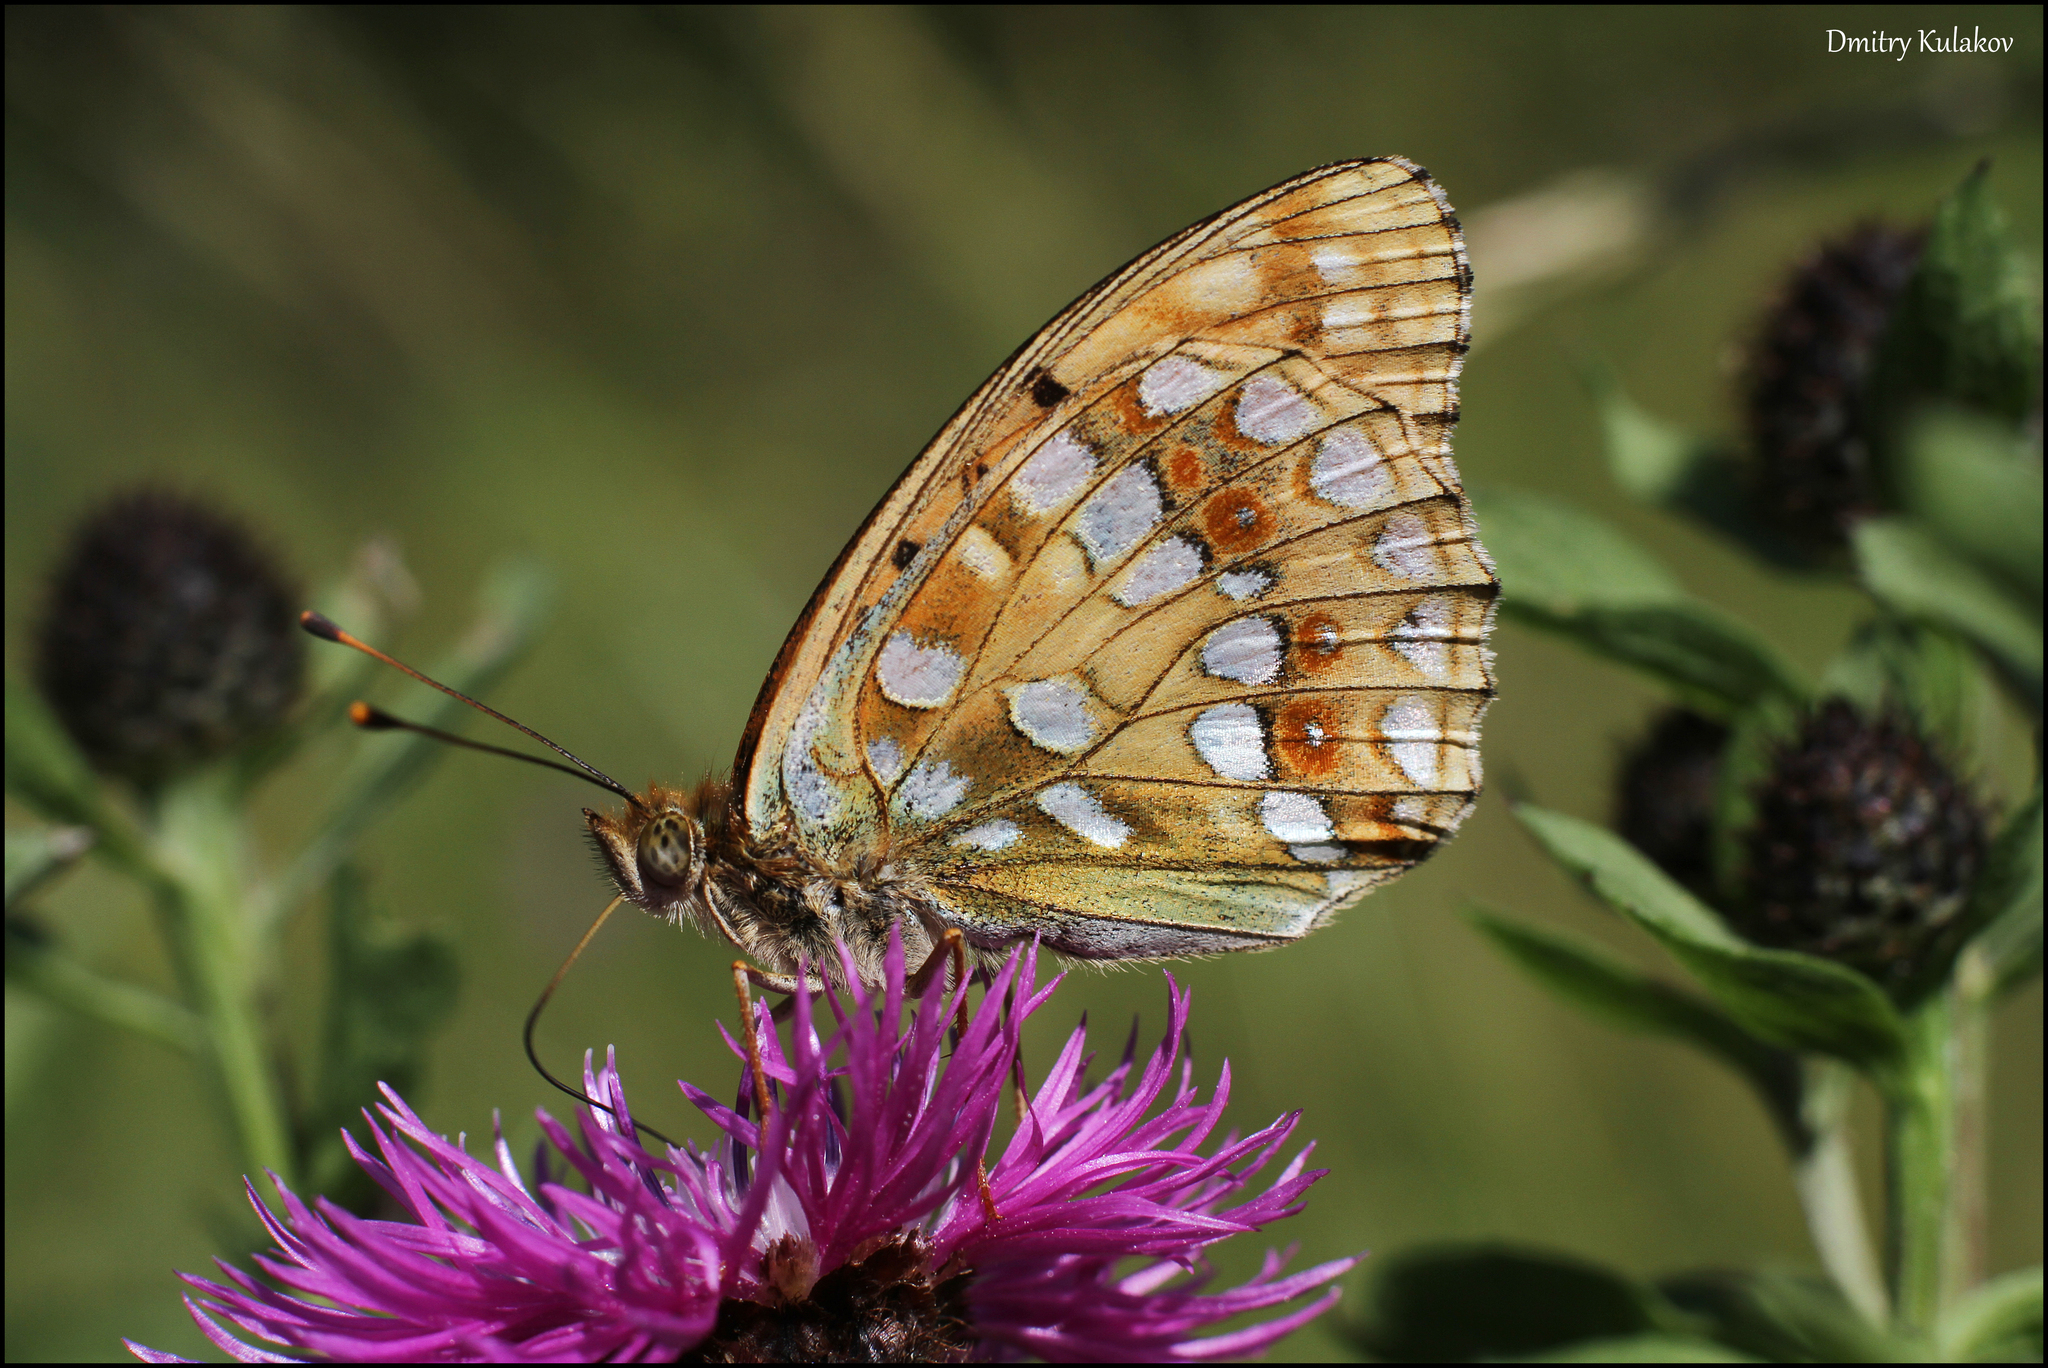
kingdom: Animalia
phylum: Arthropoda
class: Insecta
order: Lepidoptera
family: Nymphalidae
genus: Fabriciana
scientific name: Fabriciana adippe
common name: High brown fritillary
